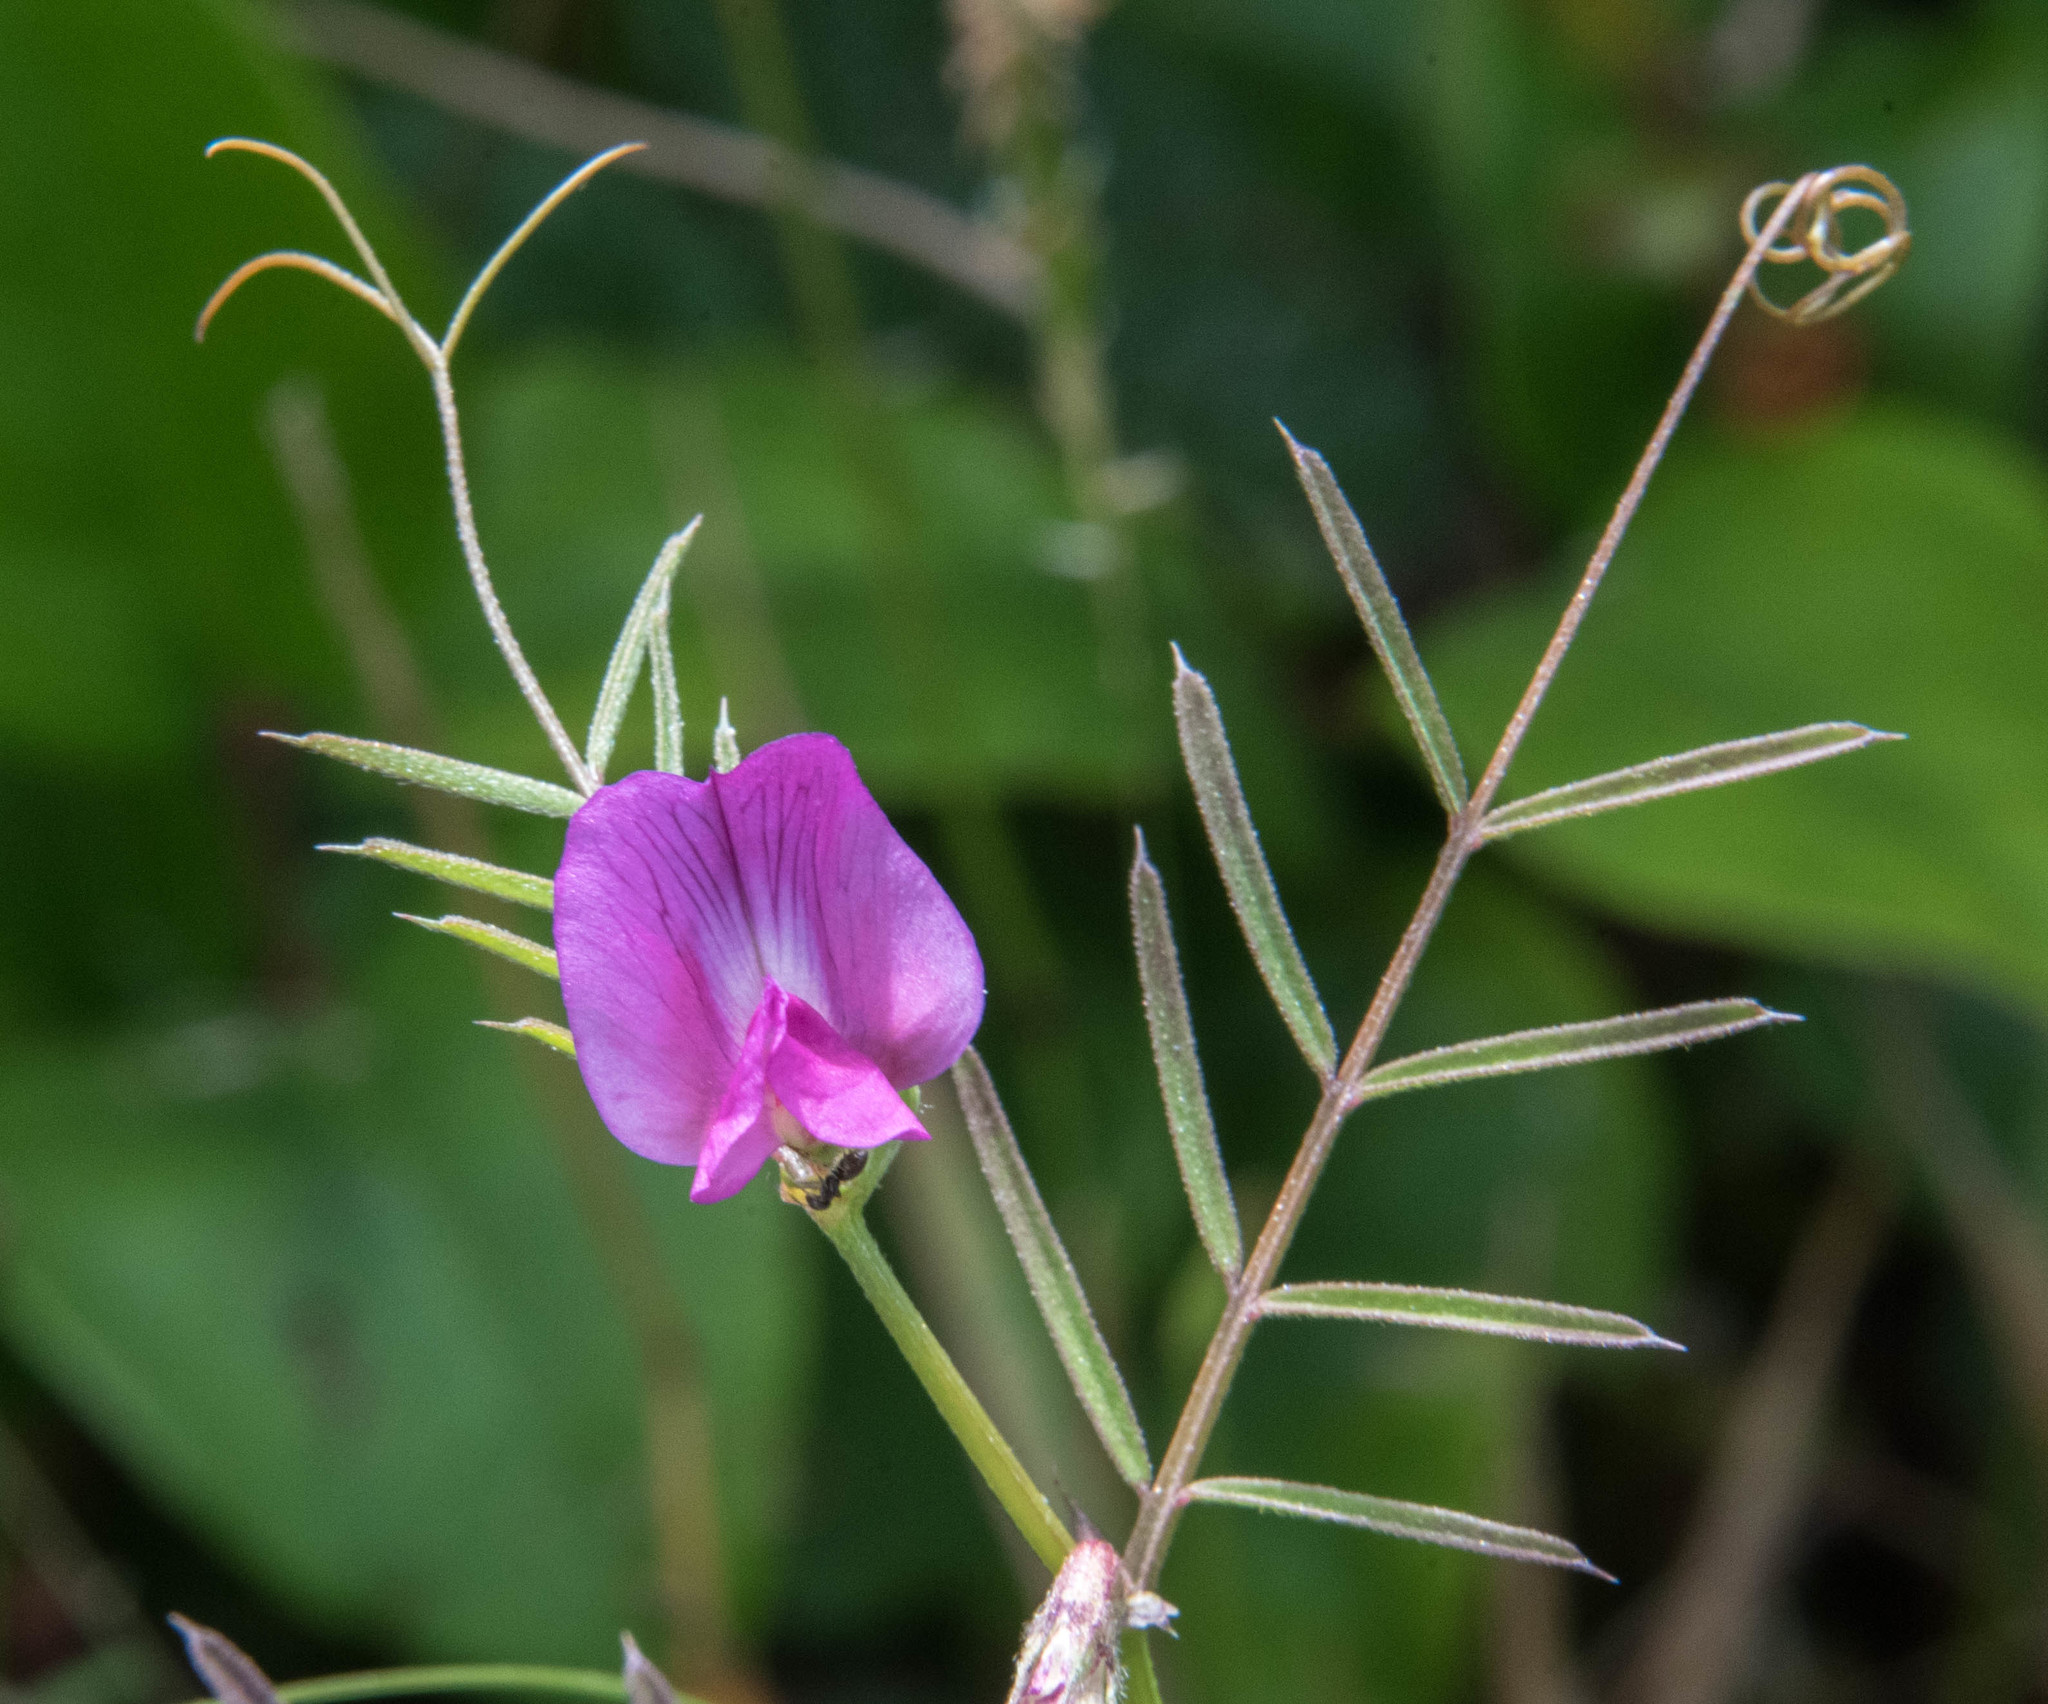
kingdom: Plantae
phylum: Tracheophyta
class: Magnoliopsida
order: Fabales
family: Fabaceae
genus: Vicia
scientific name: Vicia sativa
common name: Garden vetch
